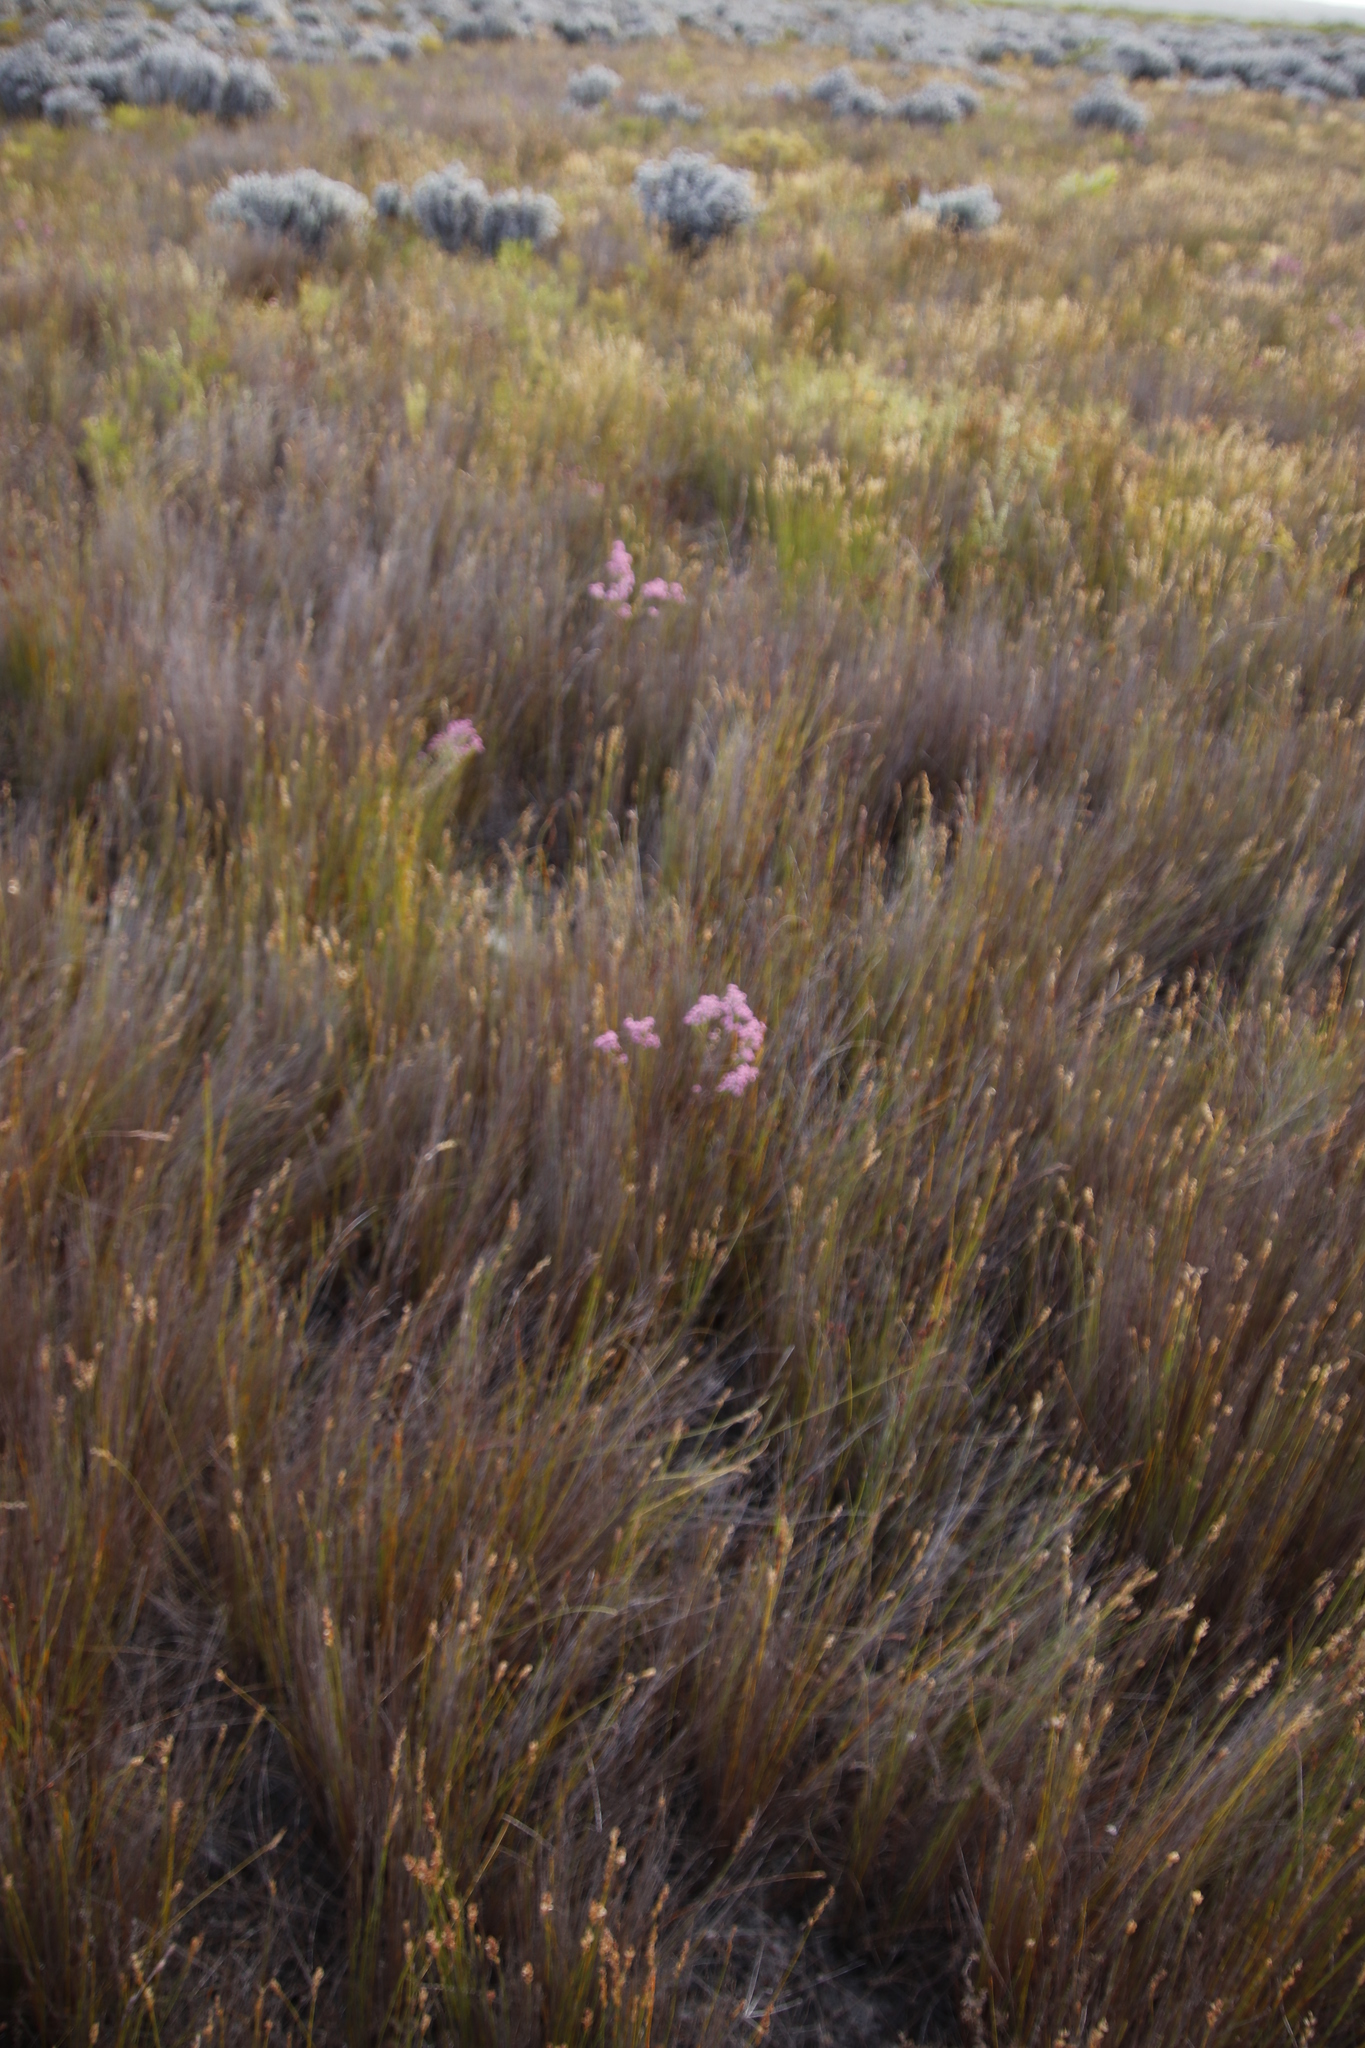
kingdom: Plantae
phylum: Tracheophyta
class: Magnoliopsida
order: Ericales
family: Ericaceae
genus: Erica
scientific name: Erica corifolia
